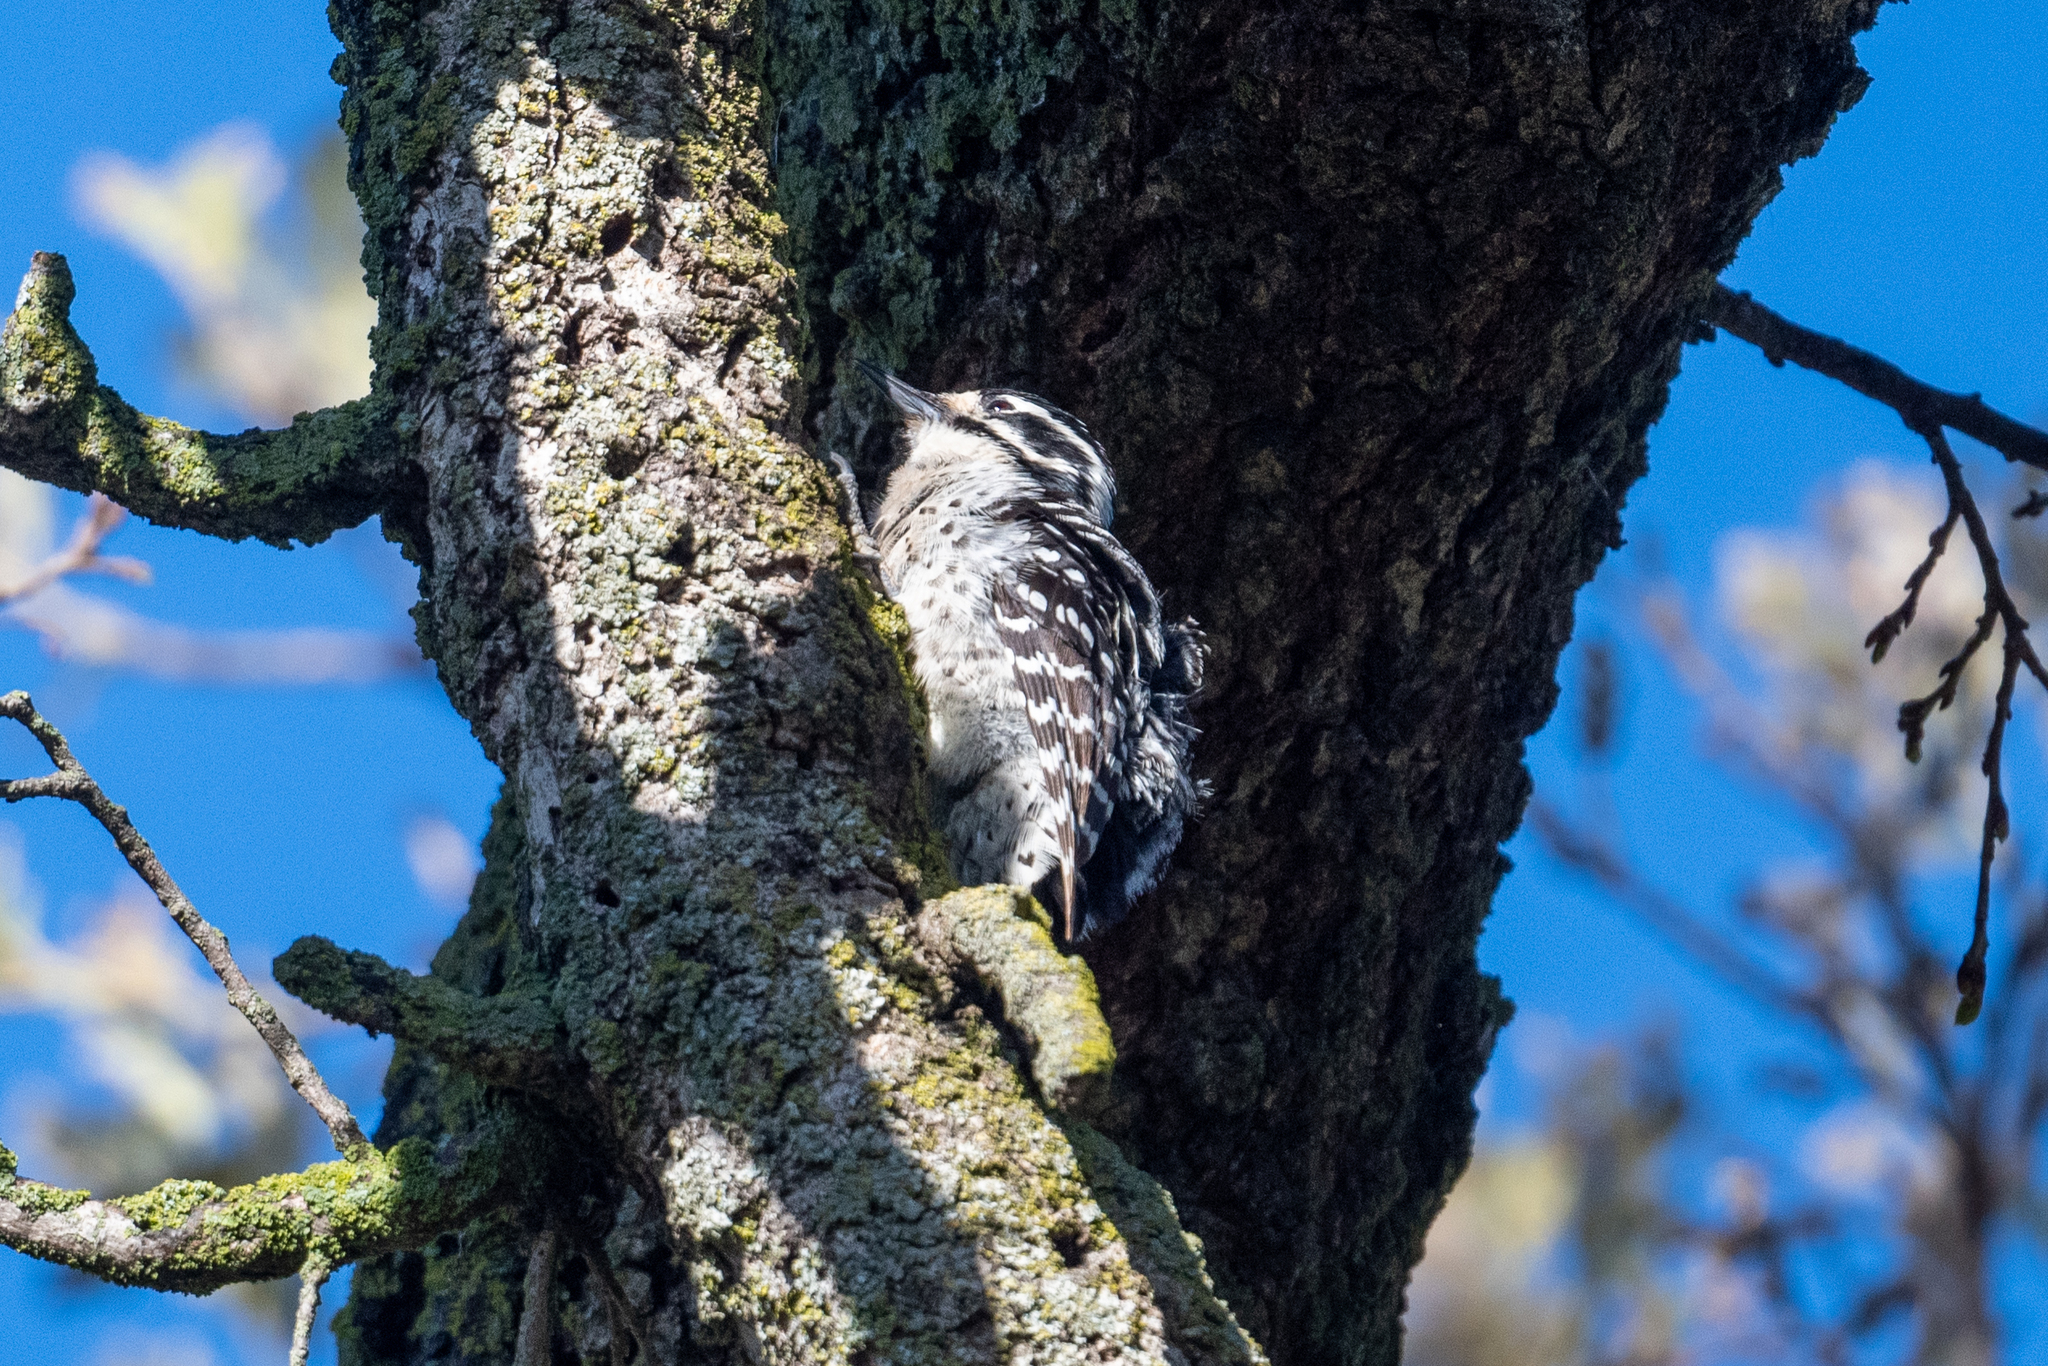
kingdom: Animalia
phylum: Chordata
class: Aves
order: Piciformes
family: Picidae
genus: Dryobates
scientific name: Dryobates nuttallii
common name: Nuttall's woodpecker
